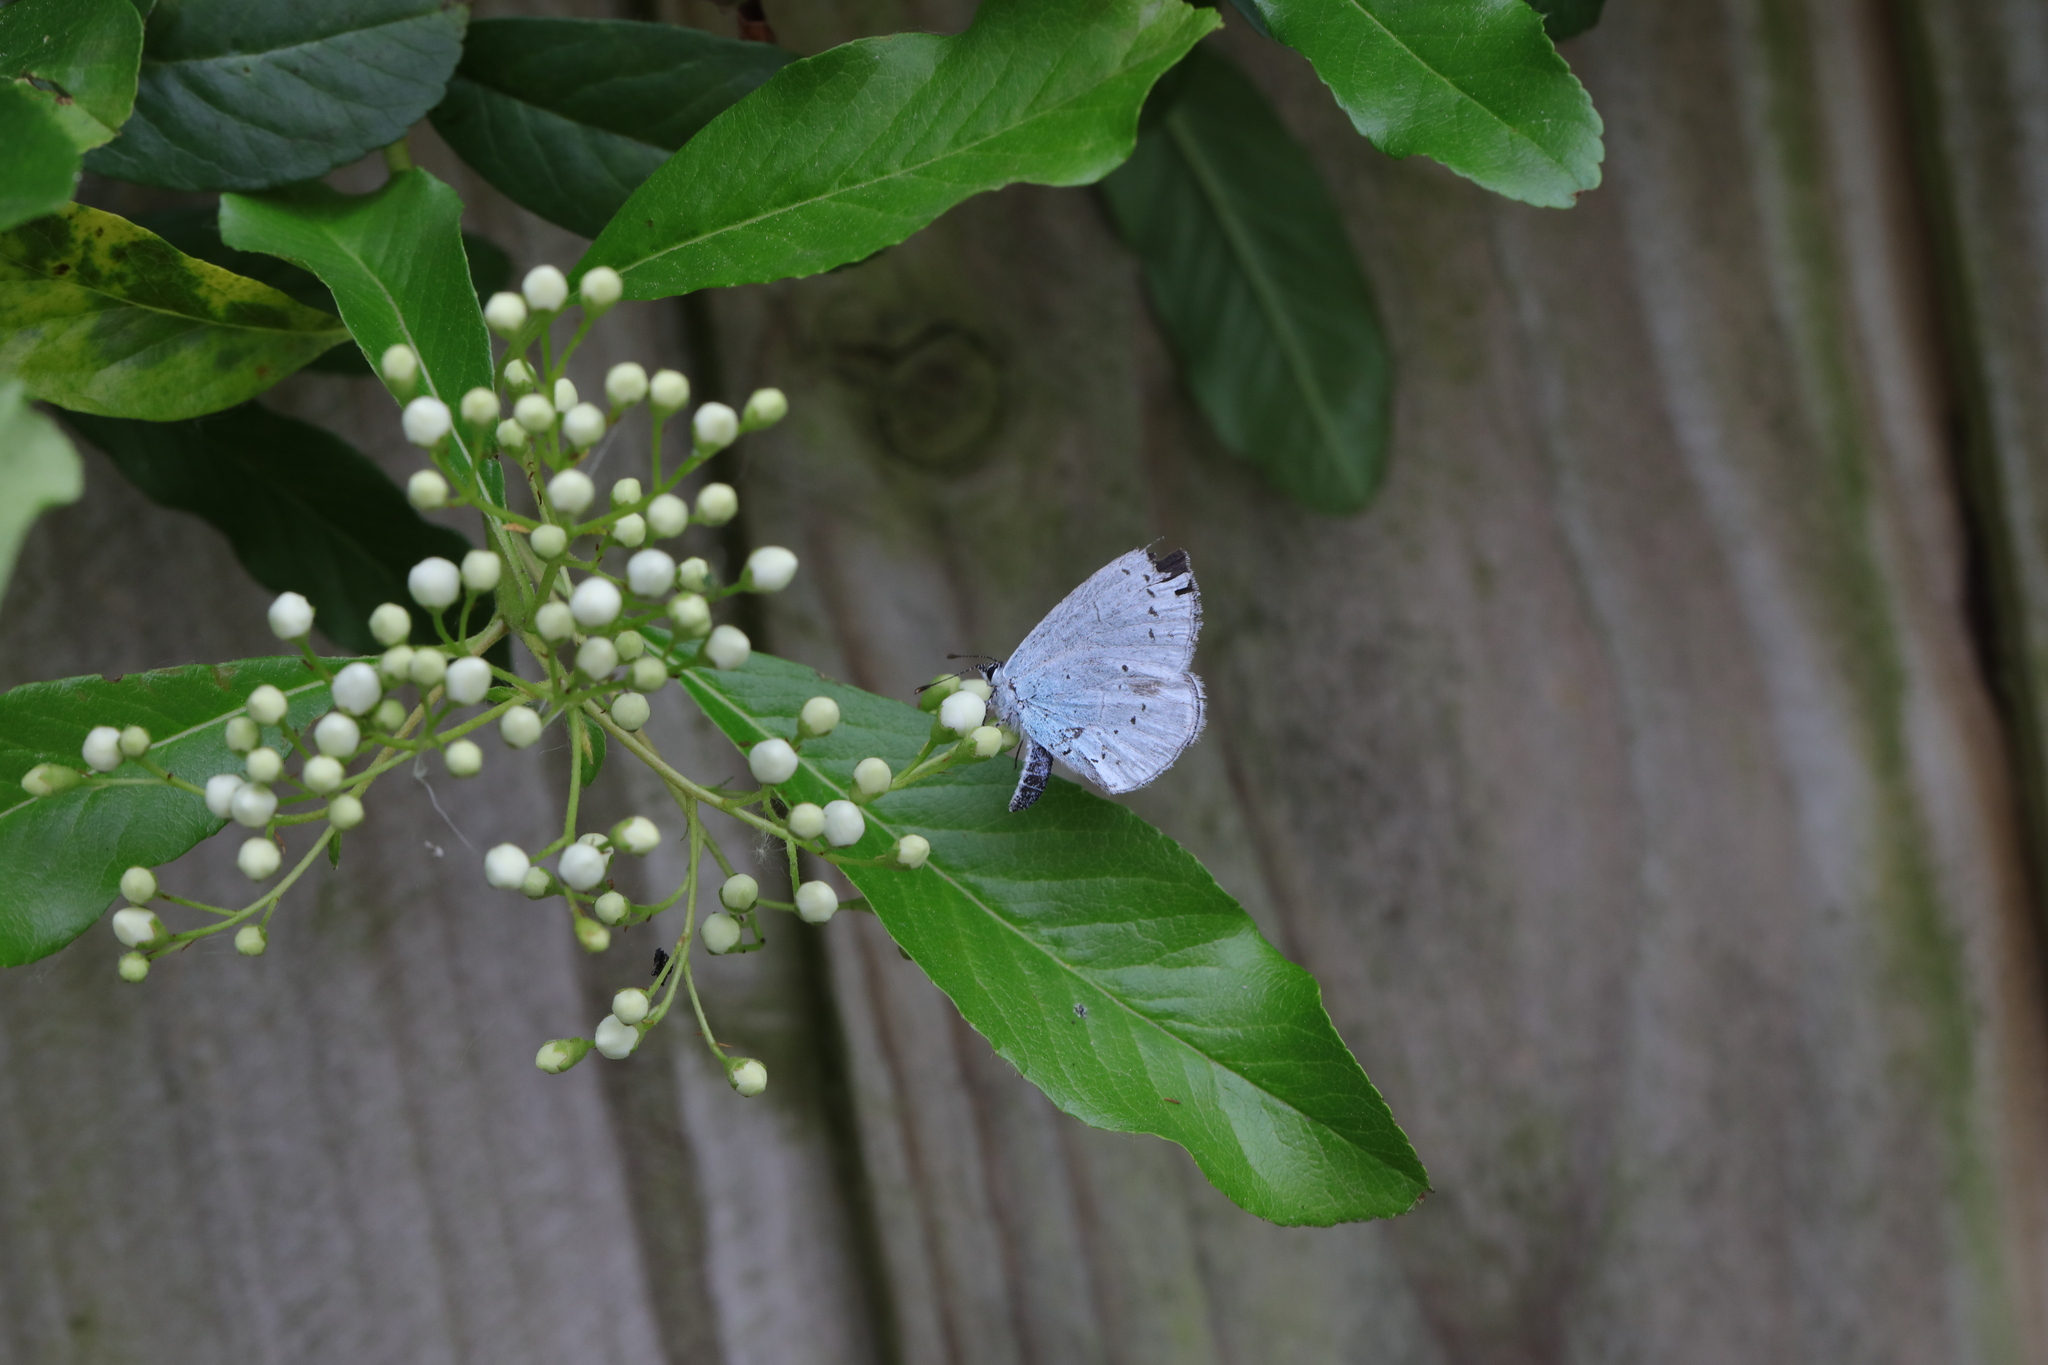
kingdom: Animalia
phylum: Arthropoda
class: Insecta
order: Lepidoptera
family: Lycaenidae
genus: Celastrina
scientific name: Celastrina argiolus
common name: Holly blue
